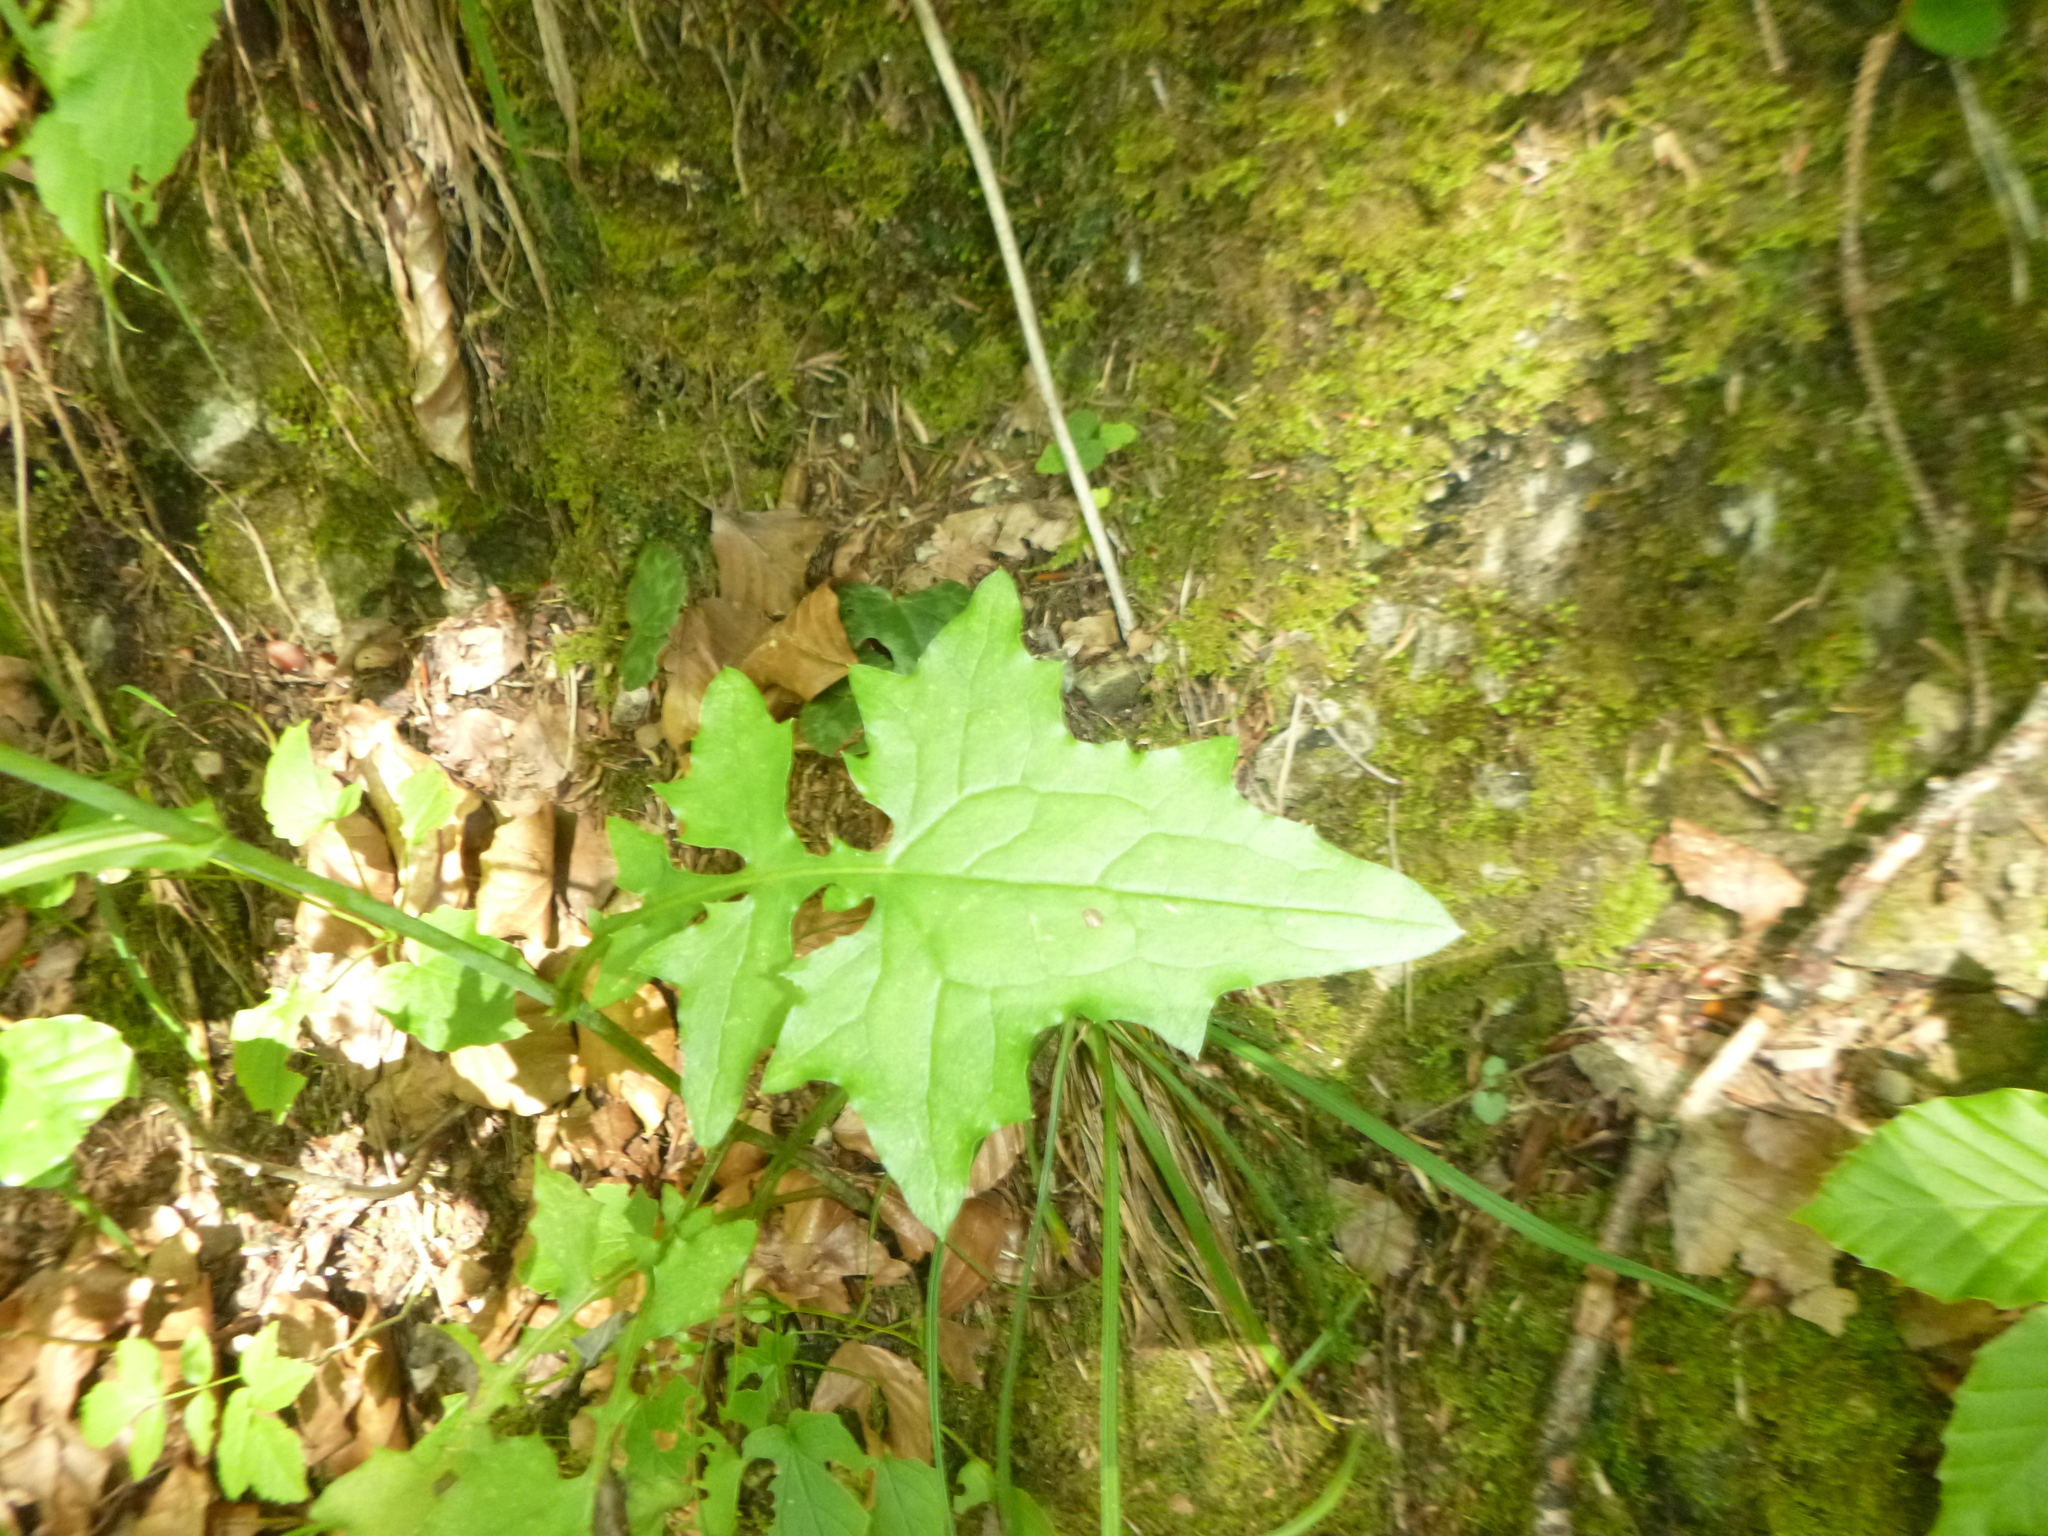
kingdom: Plantae
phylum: Tracheophyta
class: Magnoliopsida
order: Asterales
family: Asteraceae
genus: Mycelis
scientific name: Mycelis muralis
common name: Wall lettuce
